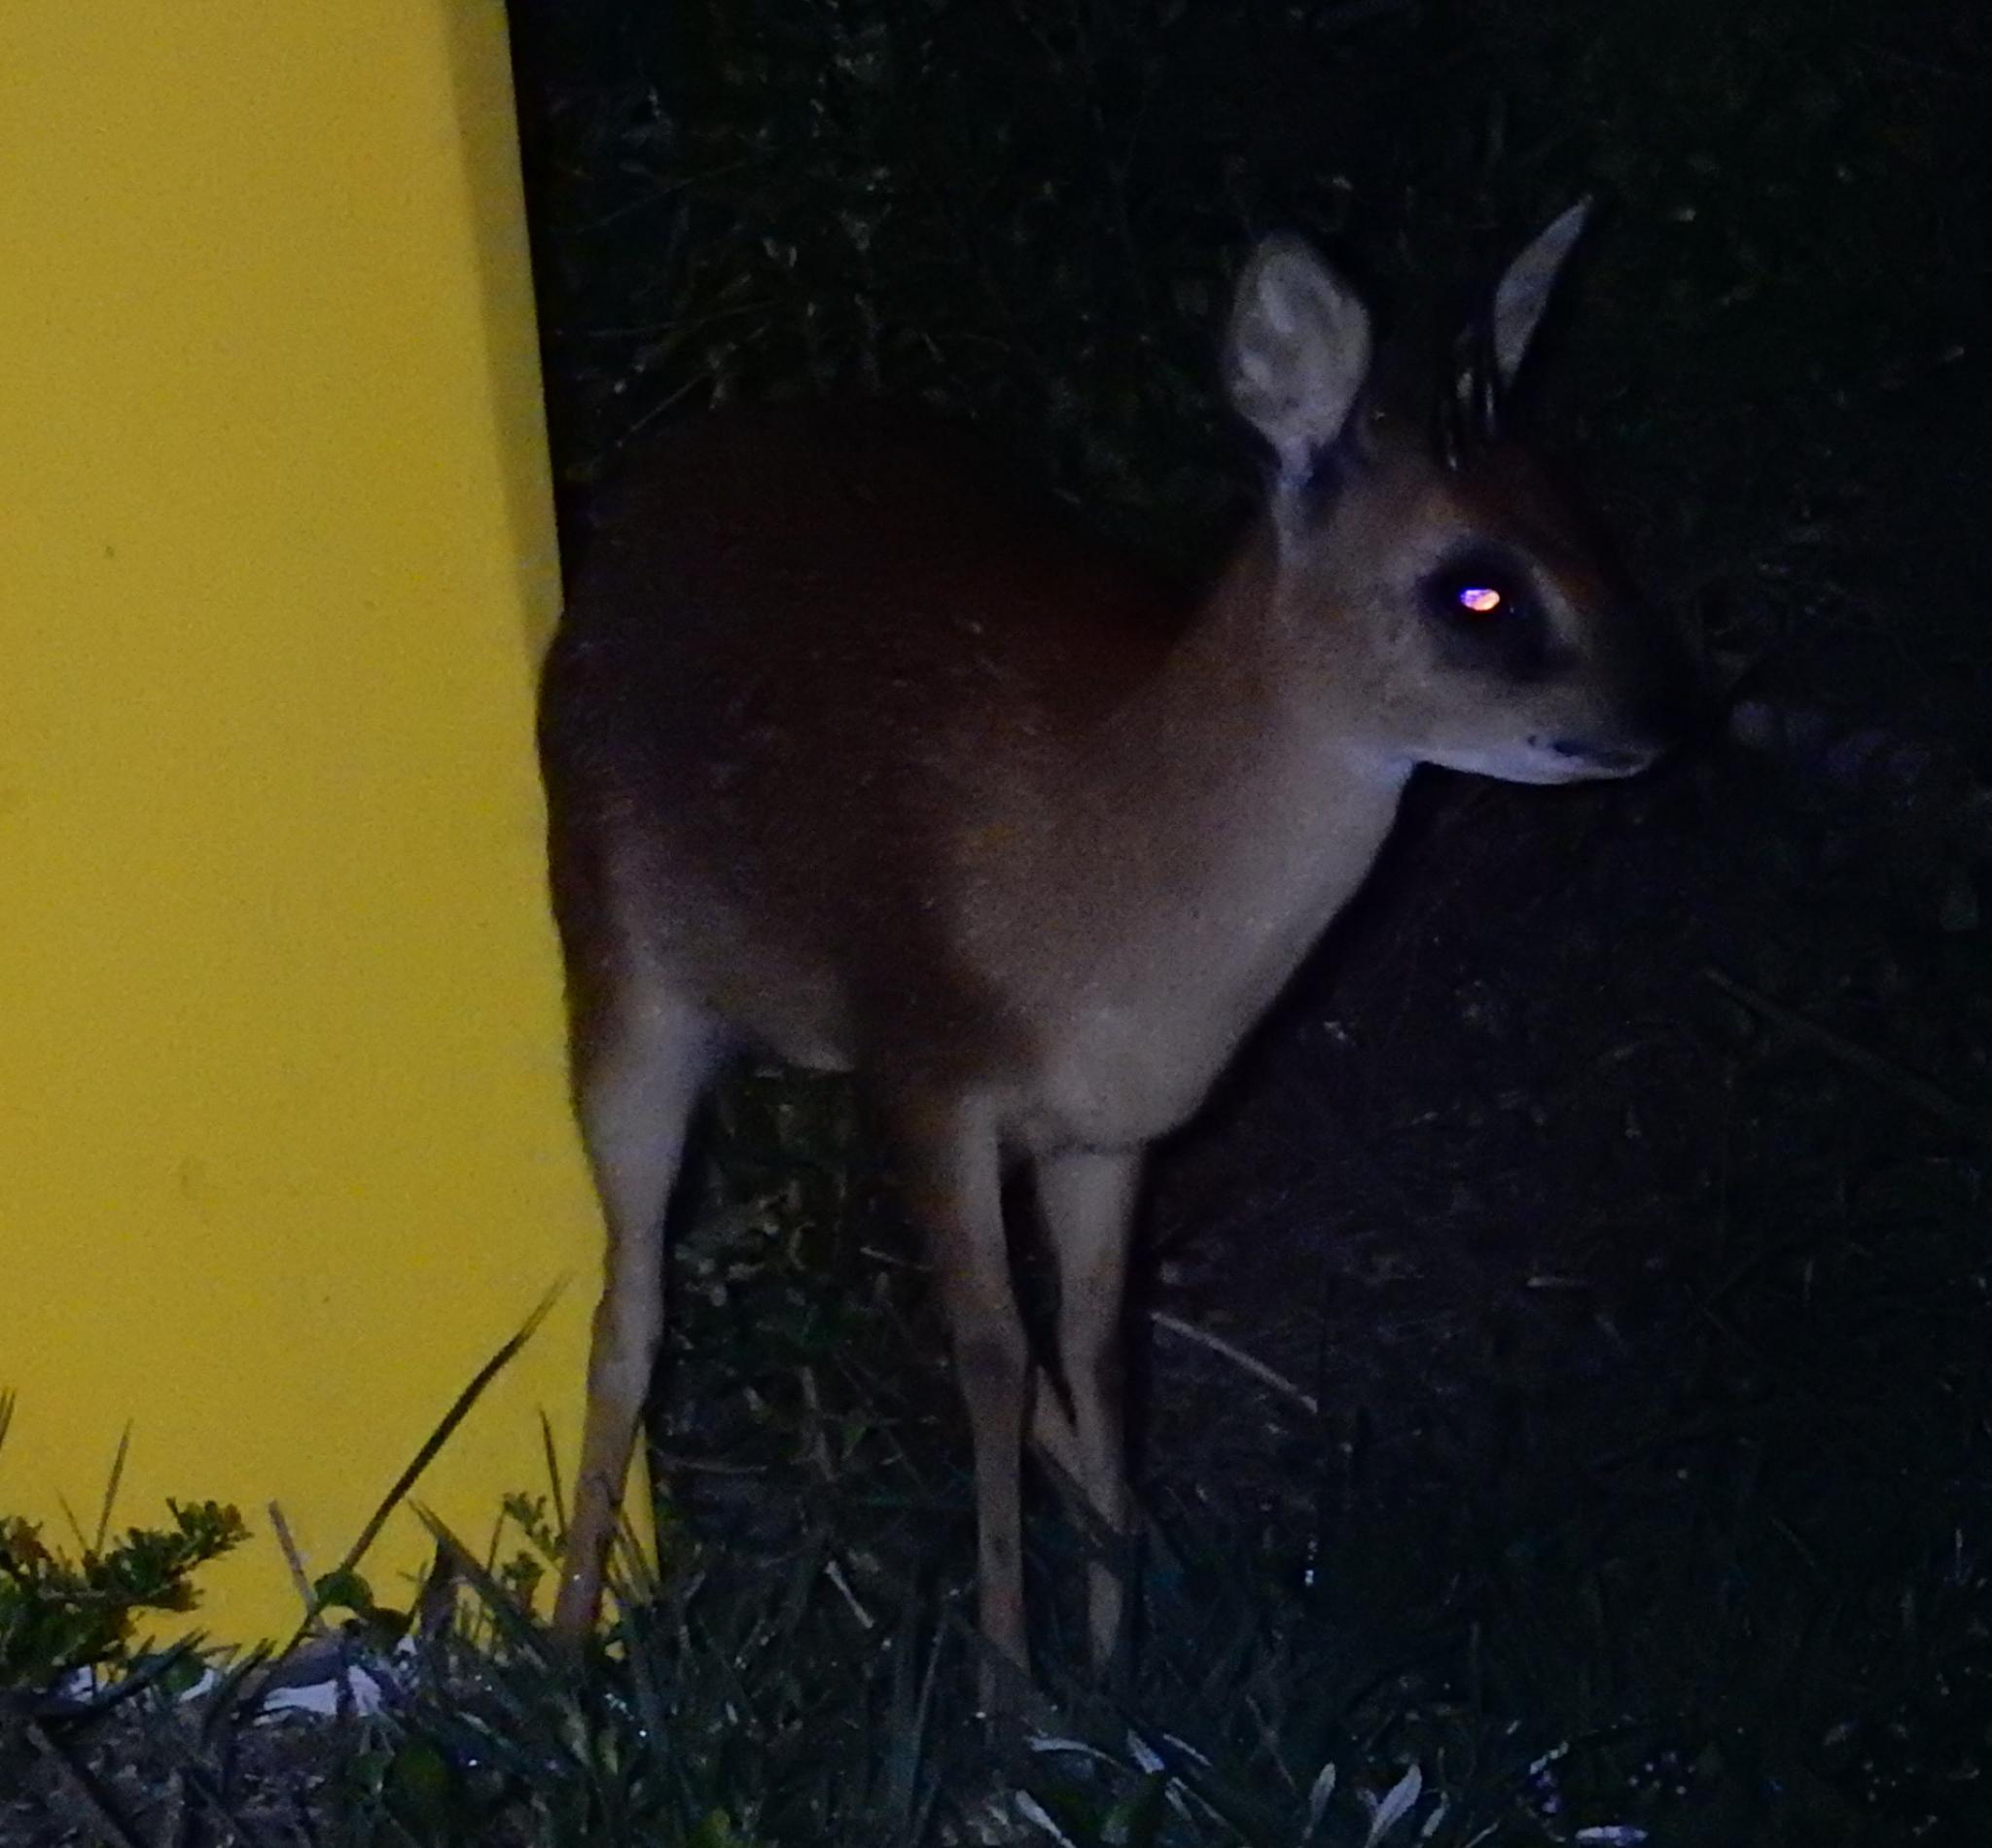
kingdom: Animalia
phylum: Chordata
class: Mammalia
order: Artiodactyla
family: Bovidae
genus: Raphicerus
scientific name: Raphicerus melanotis
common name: Cape grysbok
